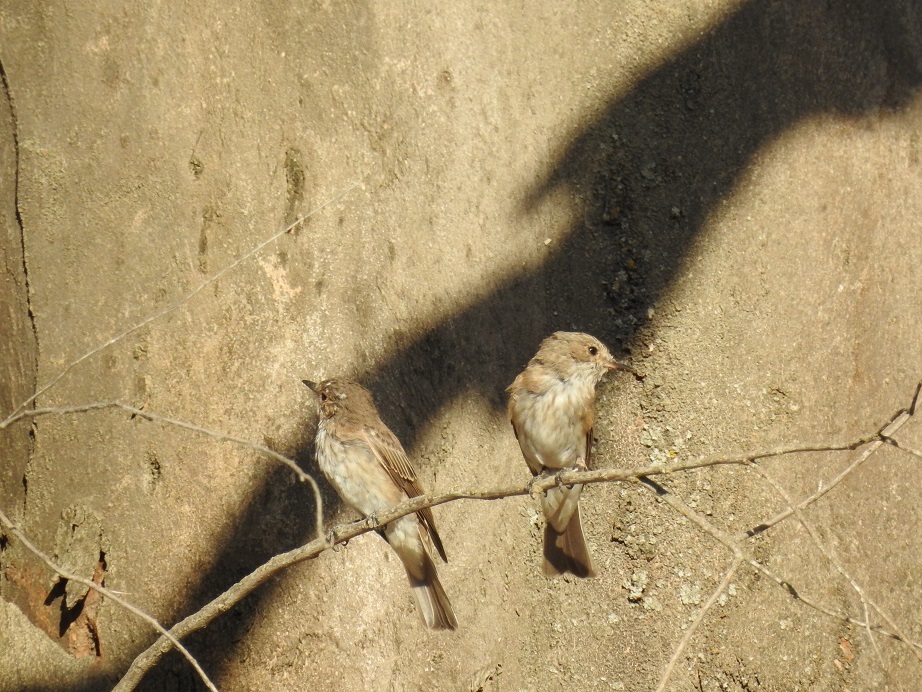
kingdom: Animalia
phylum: Chordata
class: Aves
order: Passeriformes
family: Muscicapidae
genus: Muscicapa
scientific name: Muscicapa striata
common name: Spotted flycatcher
